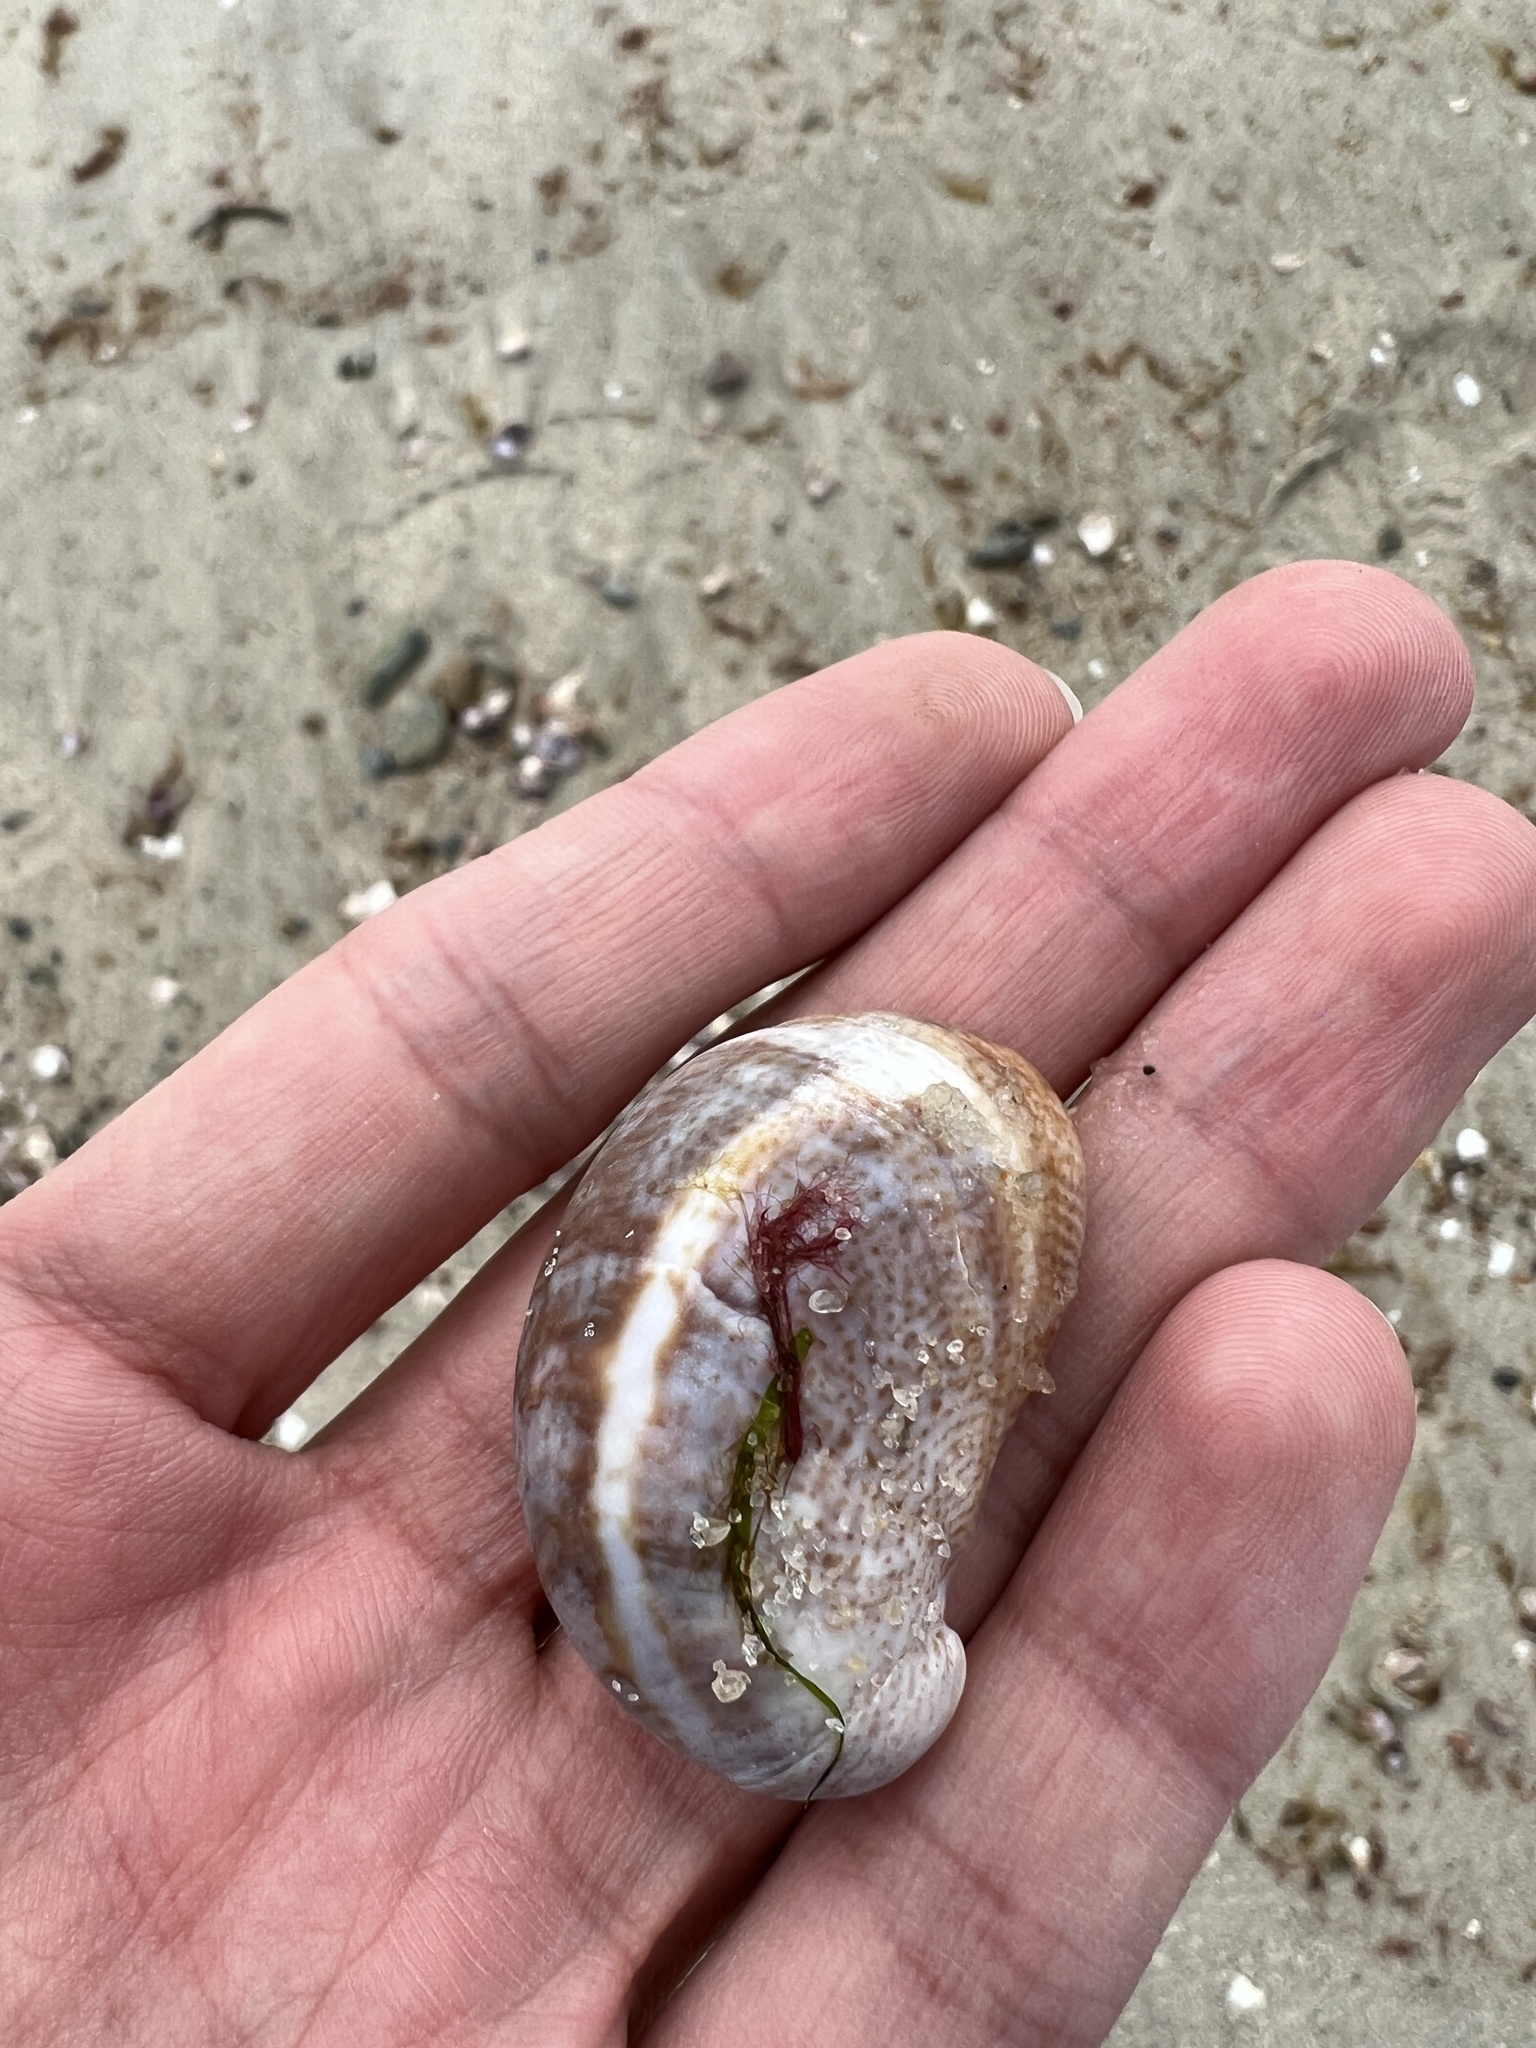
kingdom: Animalia
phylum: Mollusca
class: Gastropoda
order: Littorinimorpha
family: Calyptraeidae
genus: Crepidula
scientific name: Crepidula fornicata
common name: Slipper limpet
